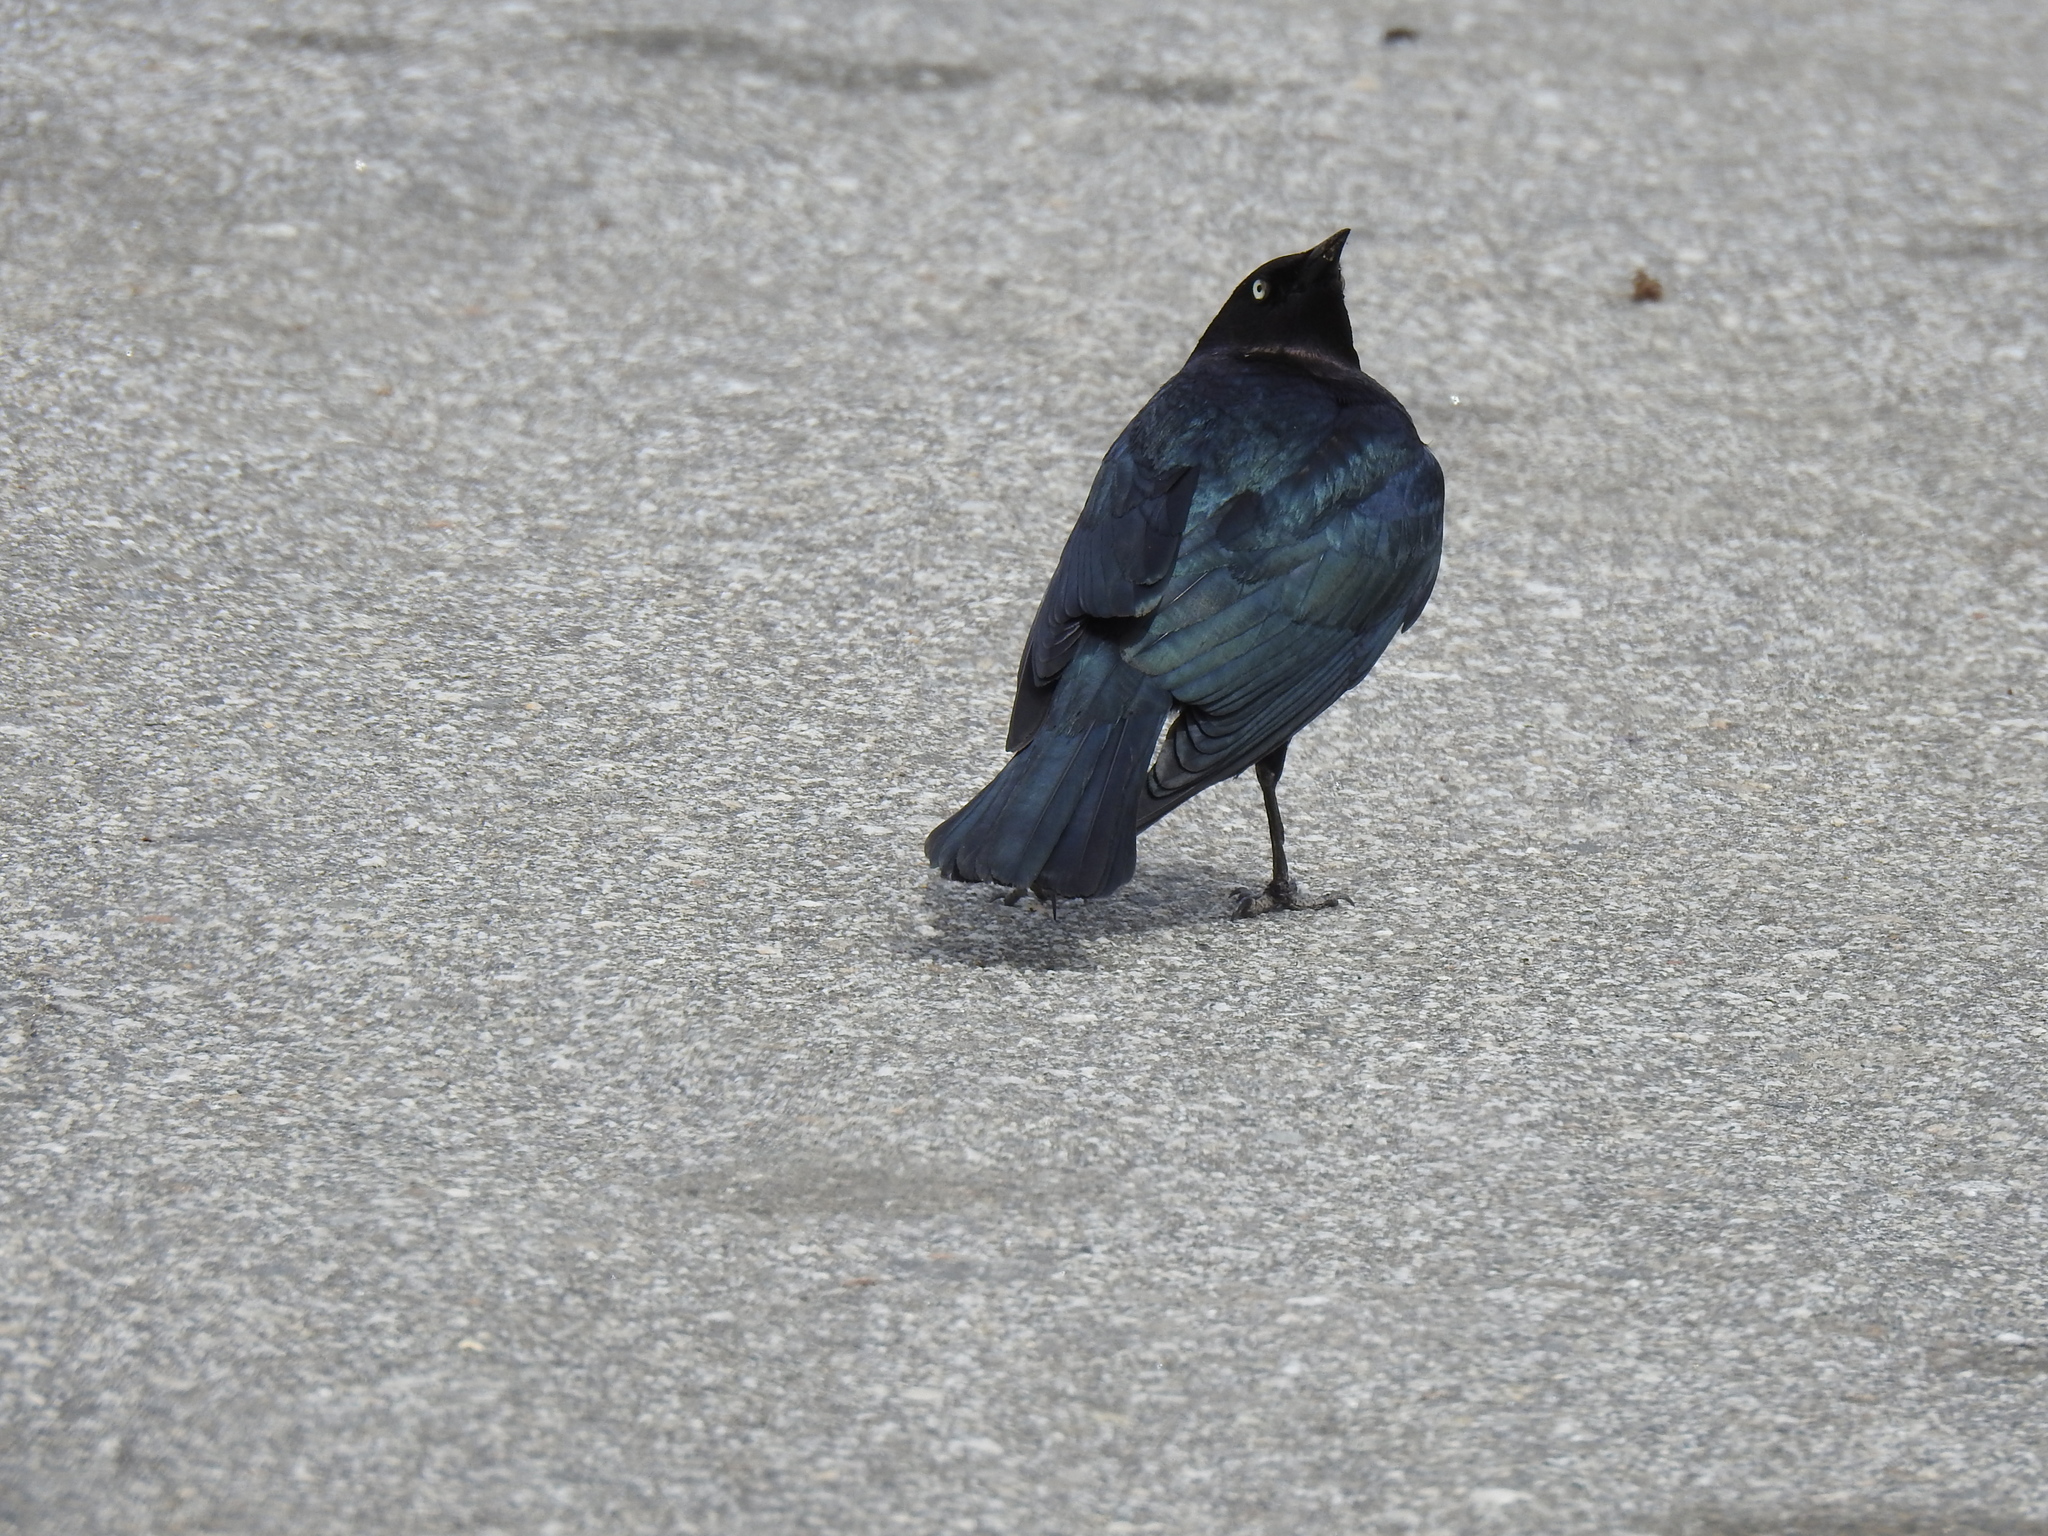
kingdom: Animalia
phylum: Chordata
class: Aves
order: Passeriformes
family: Icteridae
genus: Euphagus
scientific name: Euphagus cyanocephalus
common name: Brewer's blackbird
